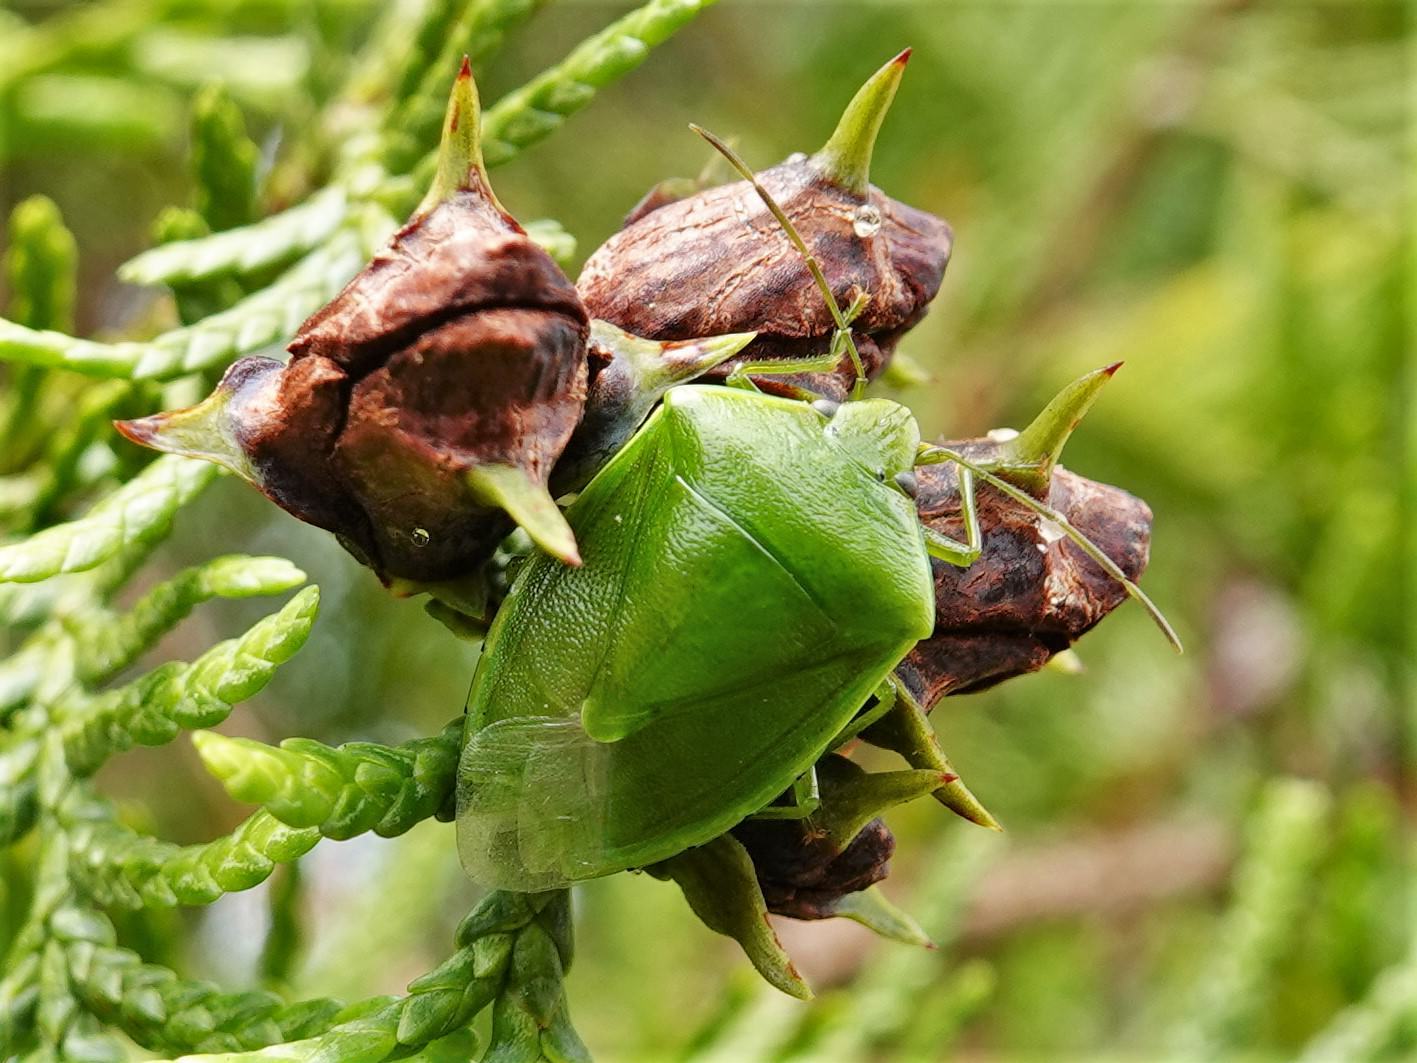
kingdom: Animalia
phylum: Arthropoda
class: Insecta
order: Hemiptera
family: Pentatomidae
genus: Glaucias
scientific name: Glaucias amyota
